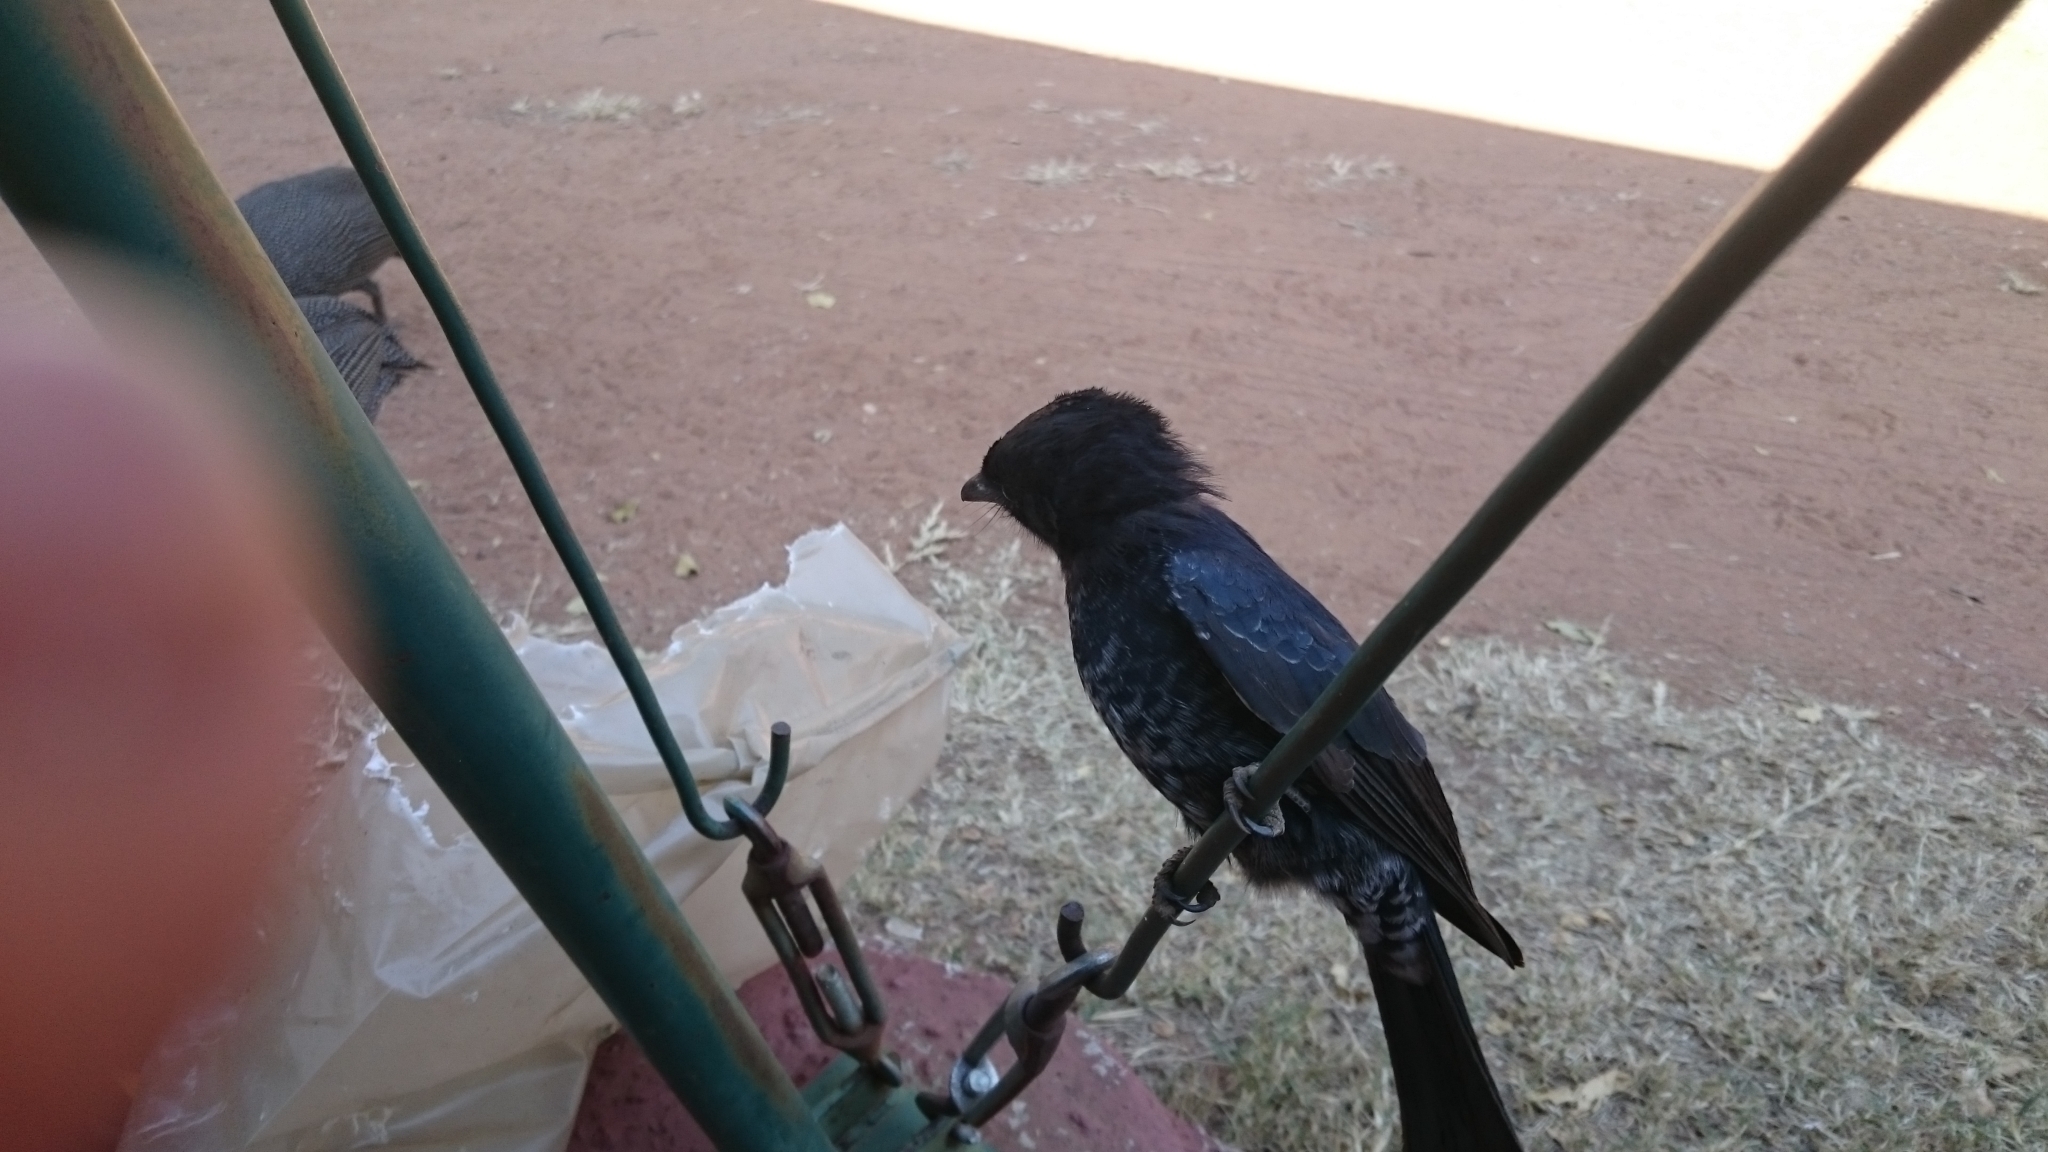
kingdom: Animalia
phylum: Chordata
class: Aves
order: Passeriformes
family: Dicruridae
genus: Dicrurus
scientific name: Dicrurus adsimilis
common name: Fork-tailed drongo
